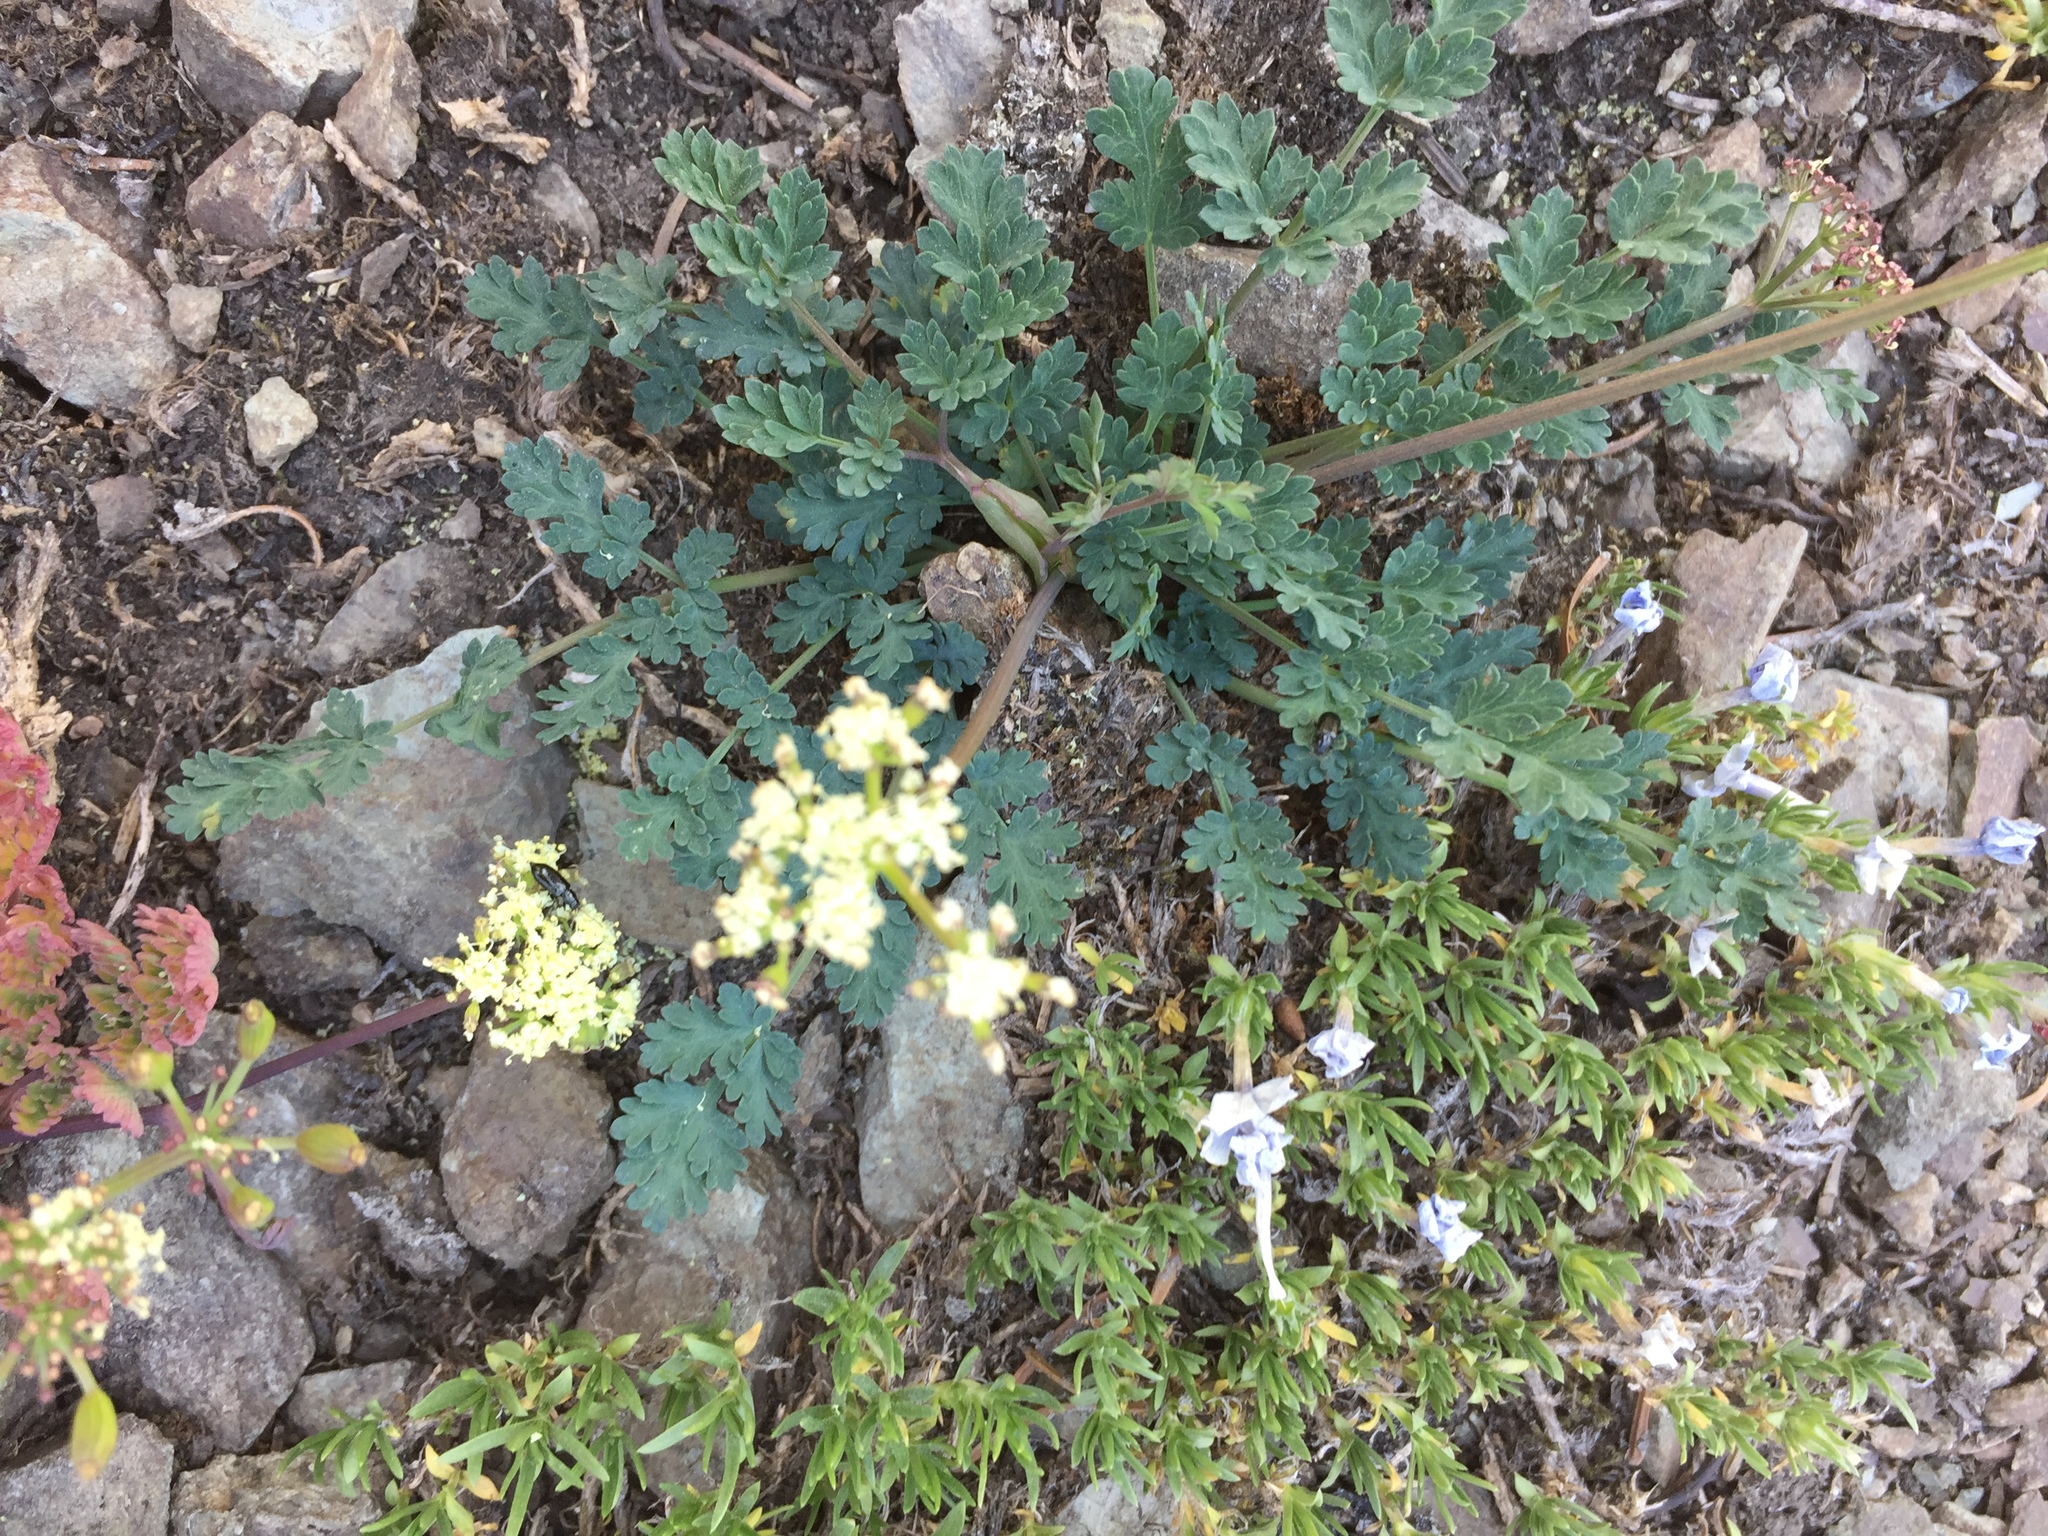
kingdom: Plantae
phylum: Tracheophyta
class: Magnoliopsida
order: Apiales
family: Apiaceae
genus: Lomatium
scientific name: Lomatium martindalei
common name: Cascade desert-parsley
